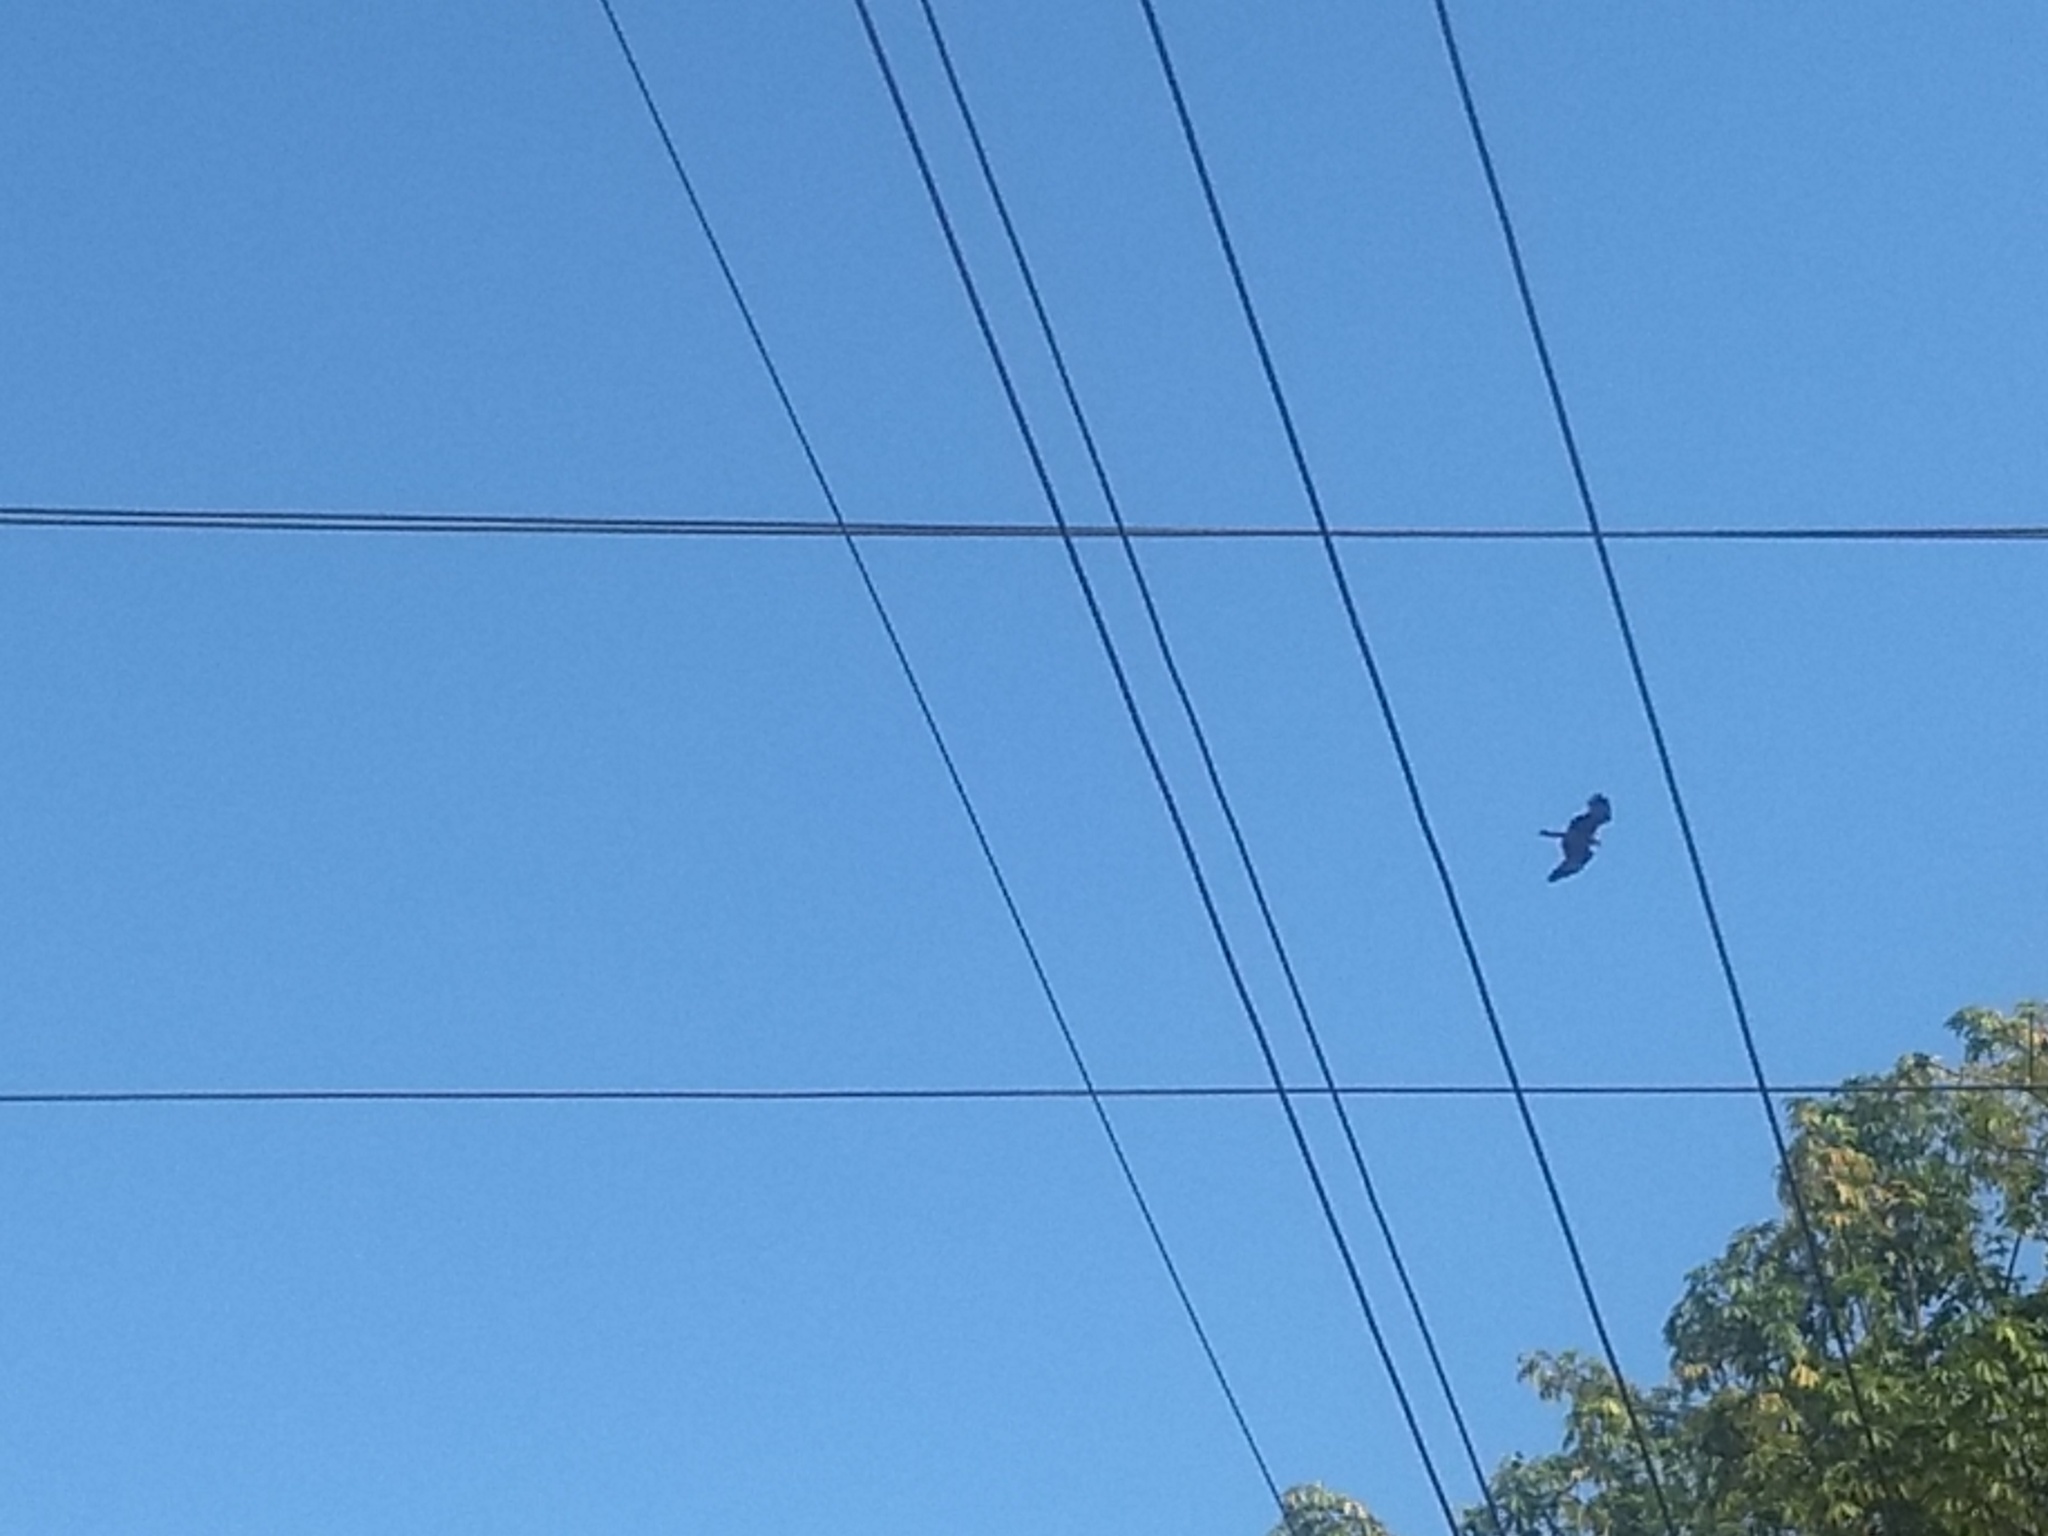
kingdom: Animalia
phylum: Chordata
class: Aves
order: Accipitriformes
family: Accipitridae
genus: Milvus
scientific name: Milvus migrans
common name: Black kite
